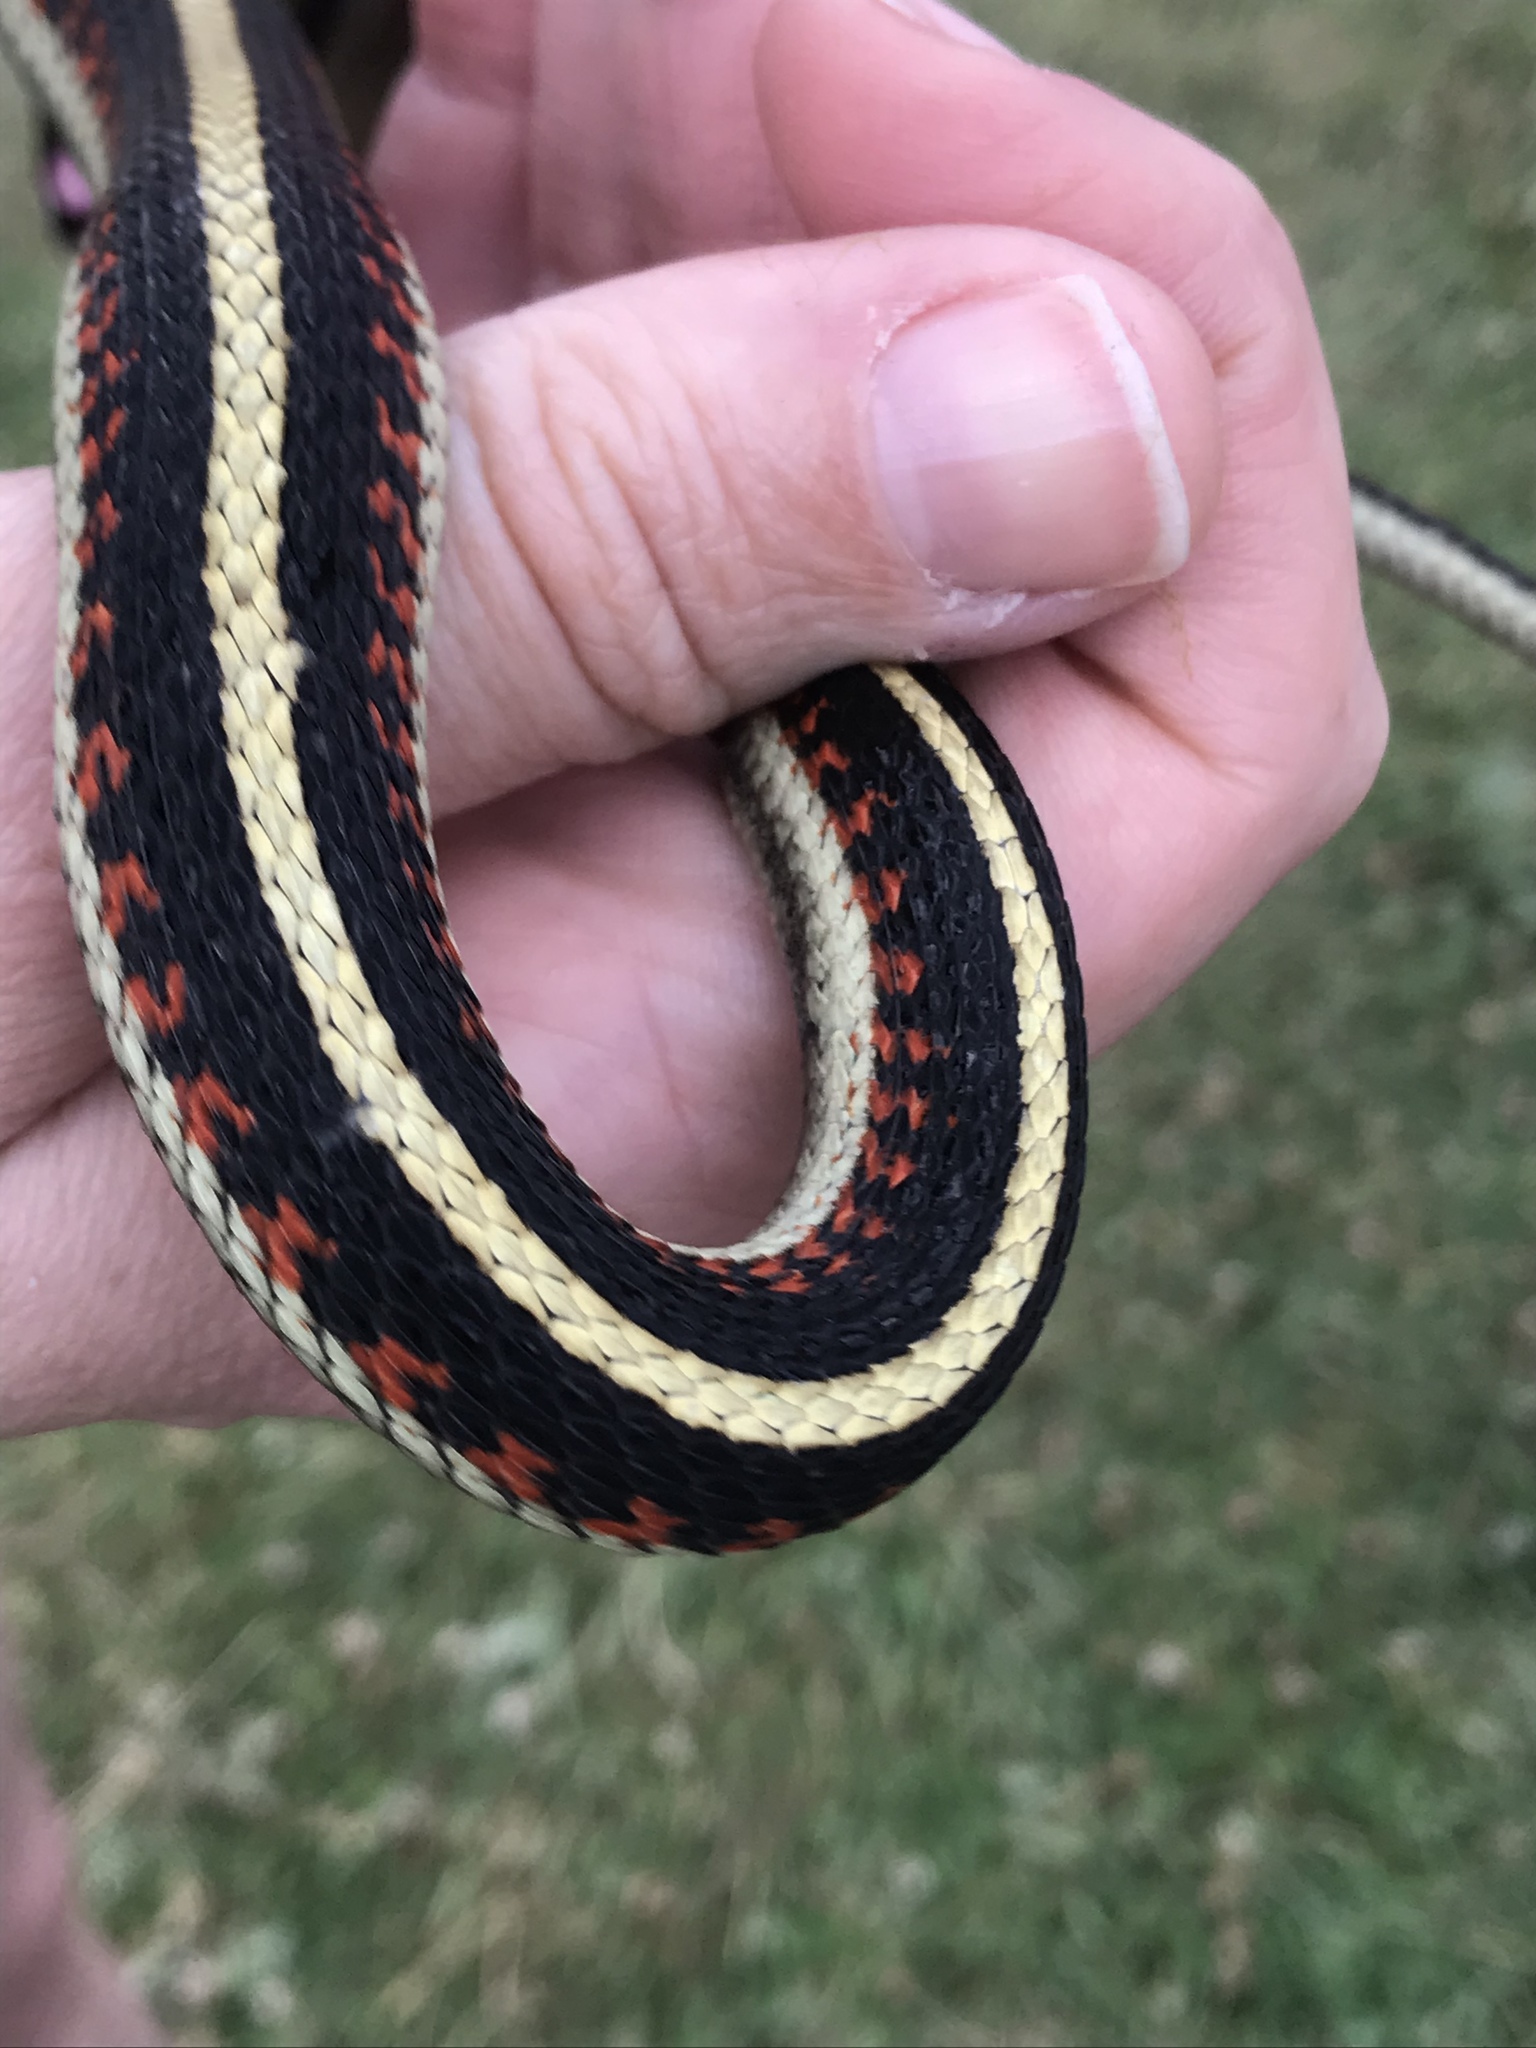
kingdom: Animalia
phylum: Chordata
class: Squamata
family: Colubridae
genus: Thamnophis
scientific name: Thamnophis sirtalis
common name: Common garter snake
